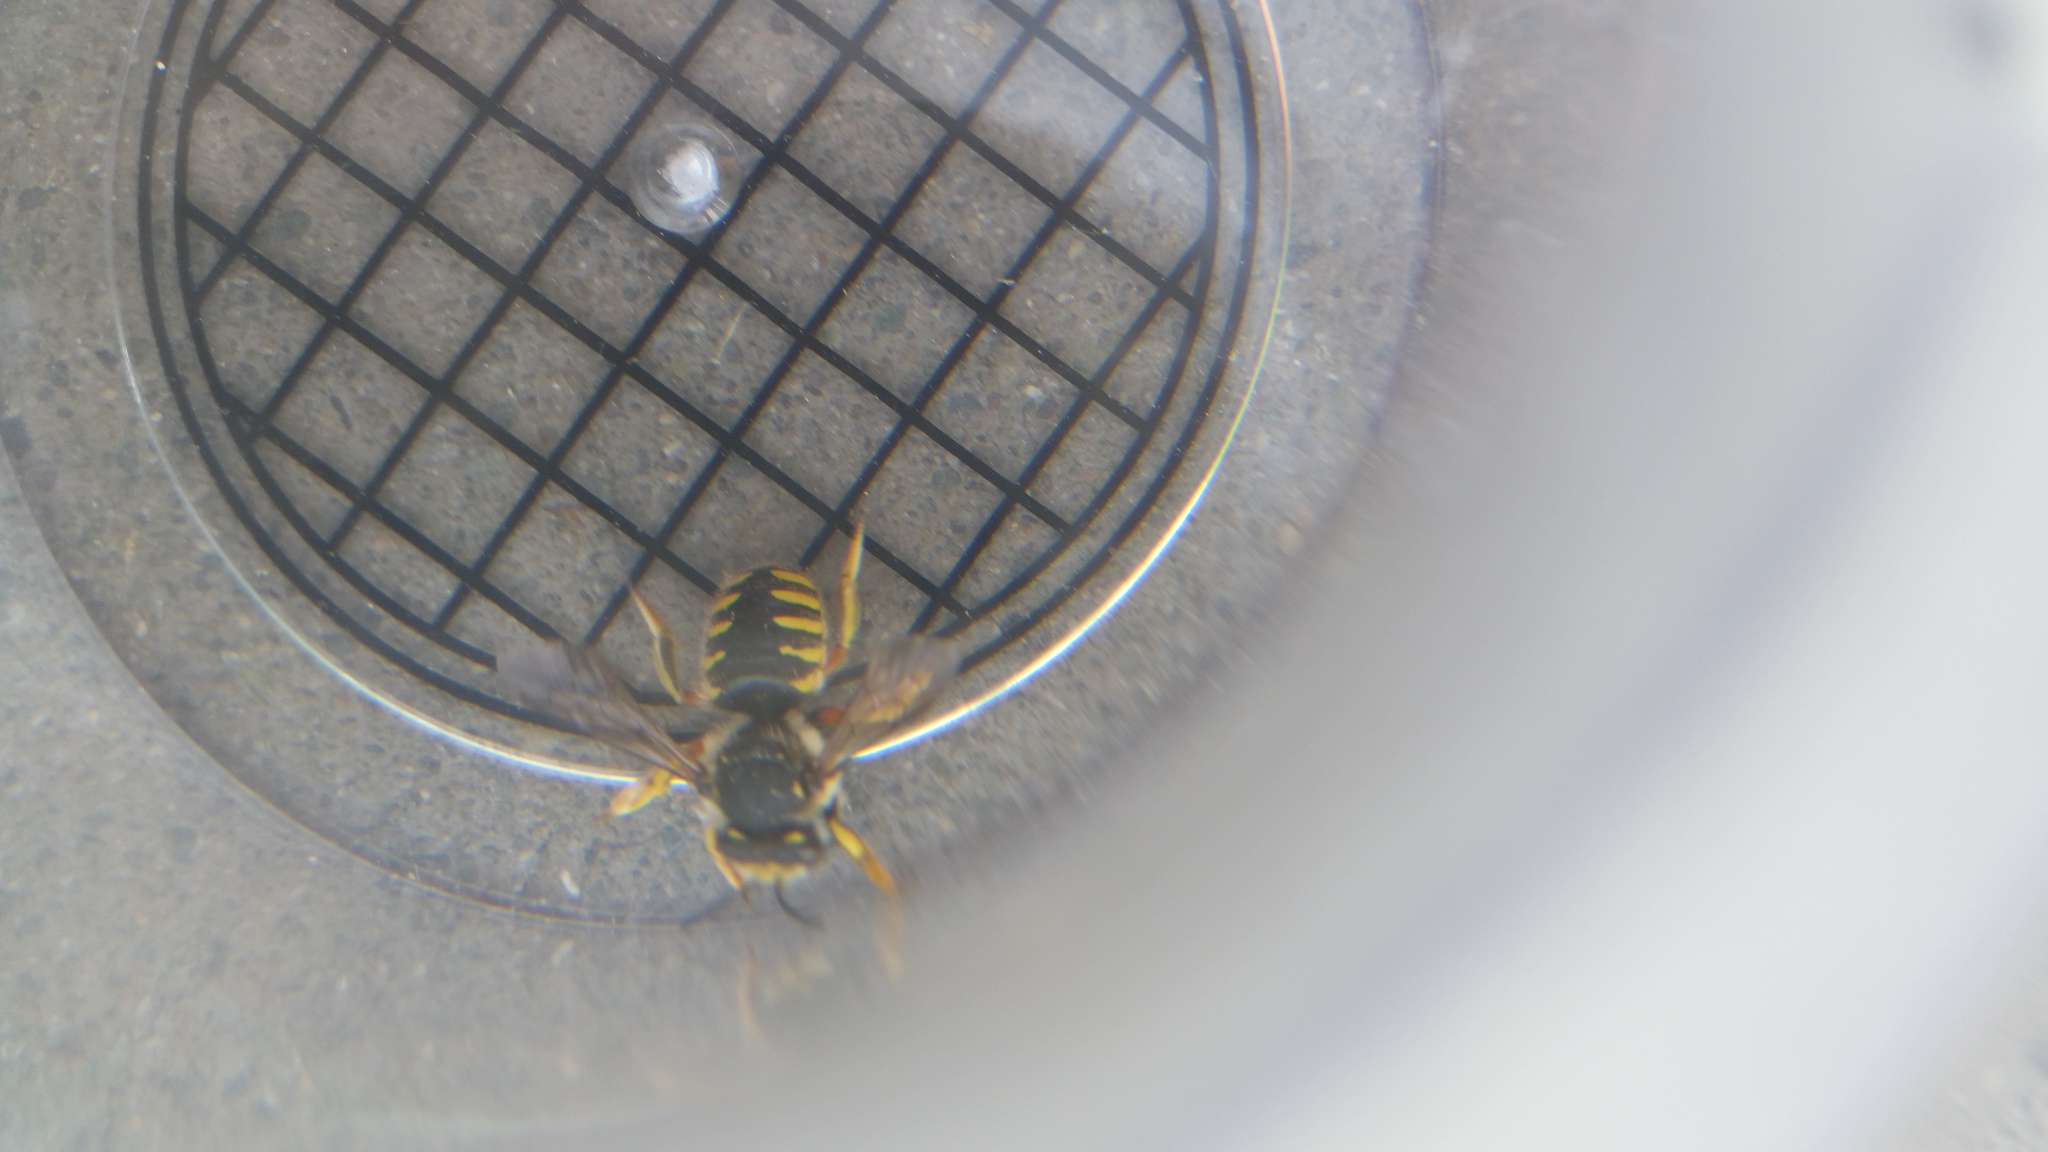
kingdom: Animalia
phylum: Arthropoda
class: Insecta
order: Hymenoptera
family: Megachilidae
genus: Anthidium
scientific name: Anthidium manicatum
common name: Wool carder bee
